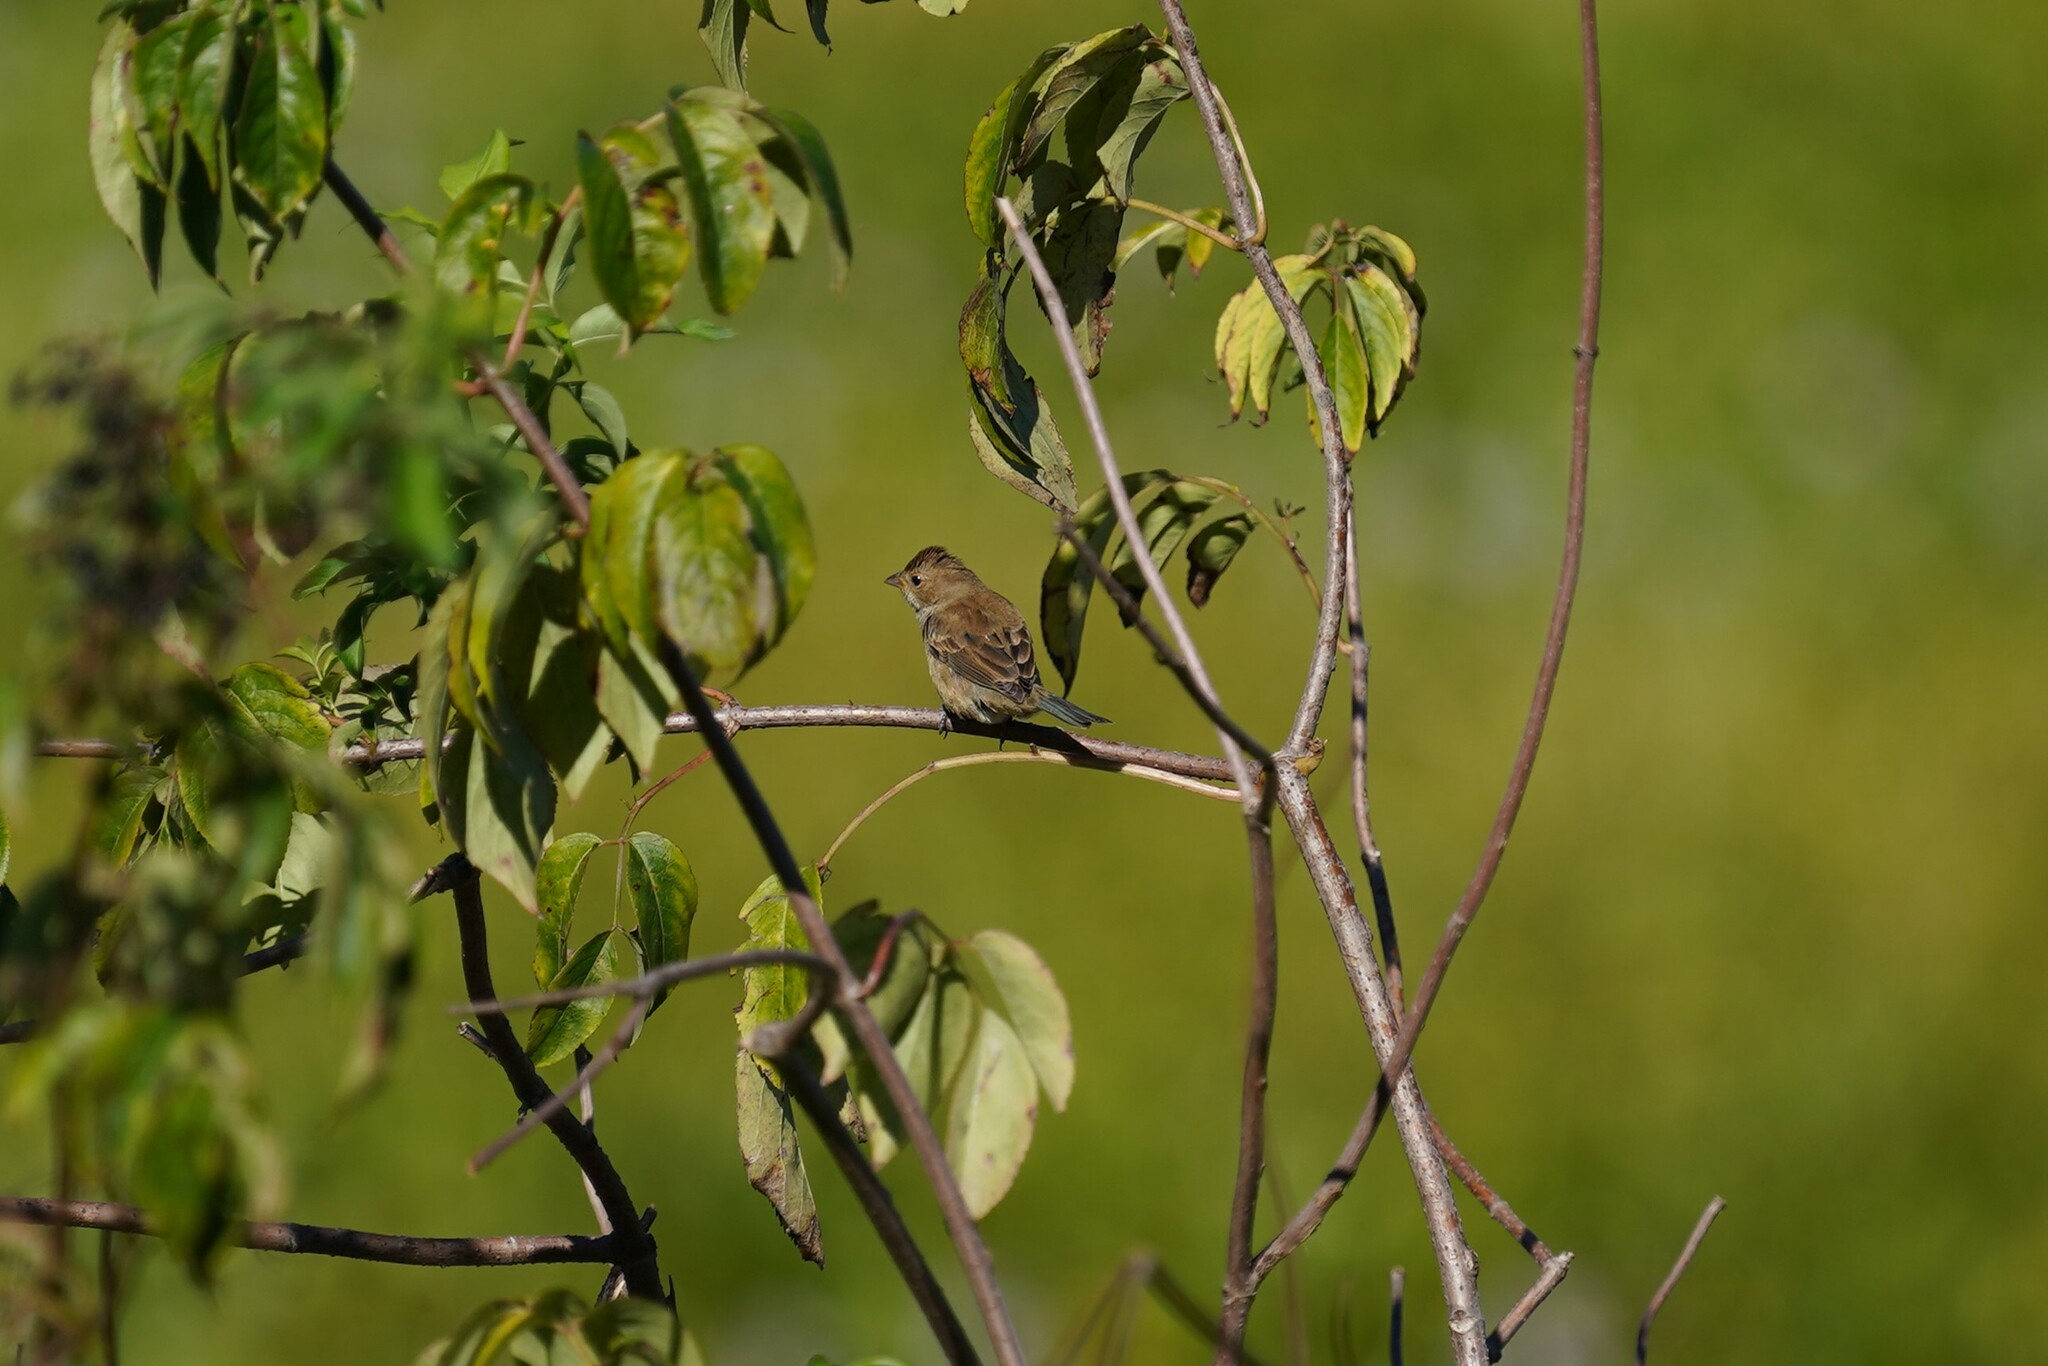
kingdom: Animalia
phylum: Chordata
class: Aves
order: Passeriformes
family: Cardinalidae
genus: Passerina
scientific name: Passerina cyanea
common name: Indigo bunting
